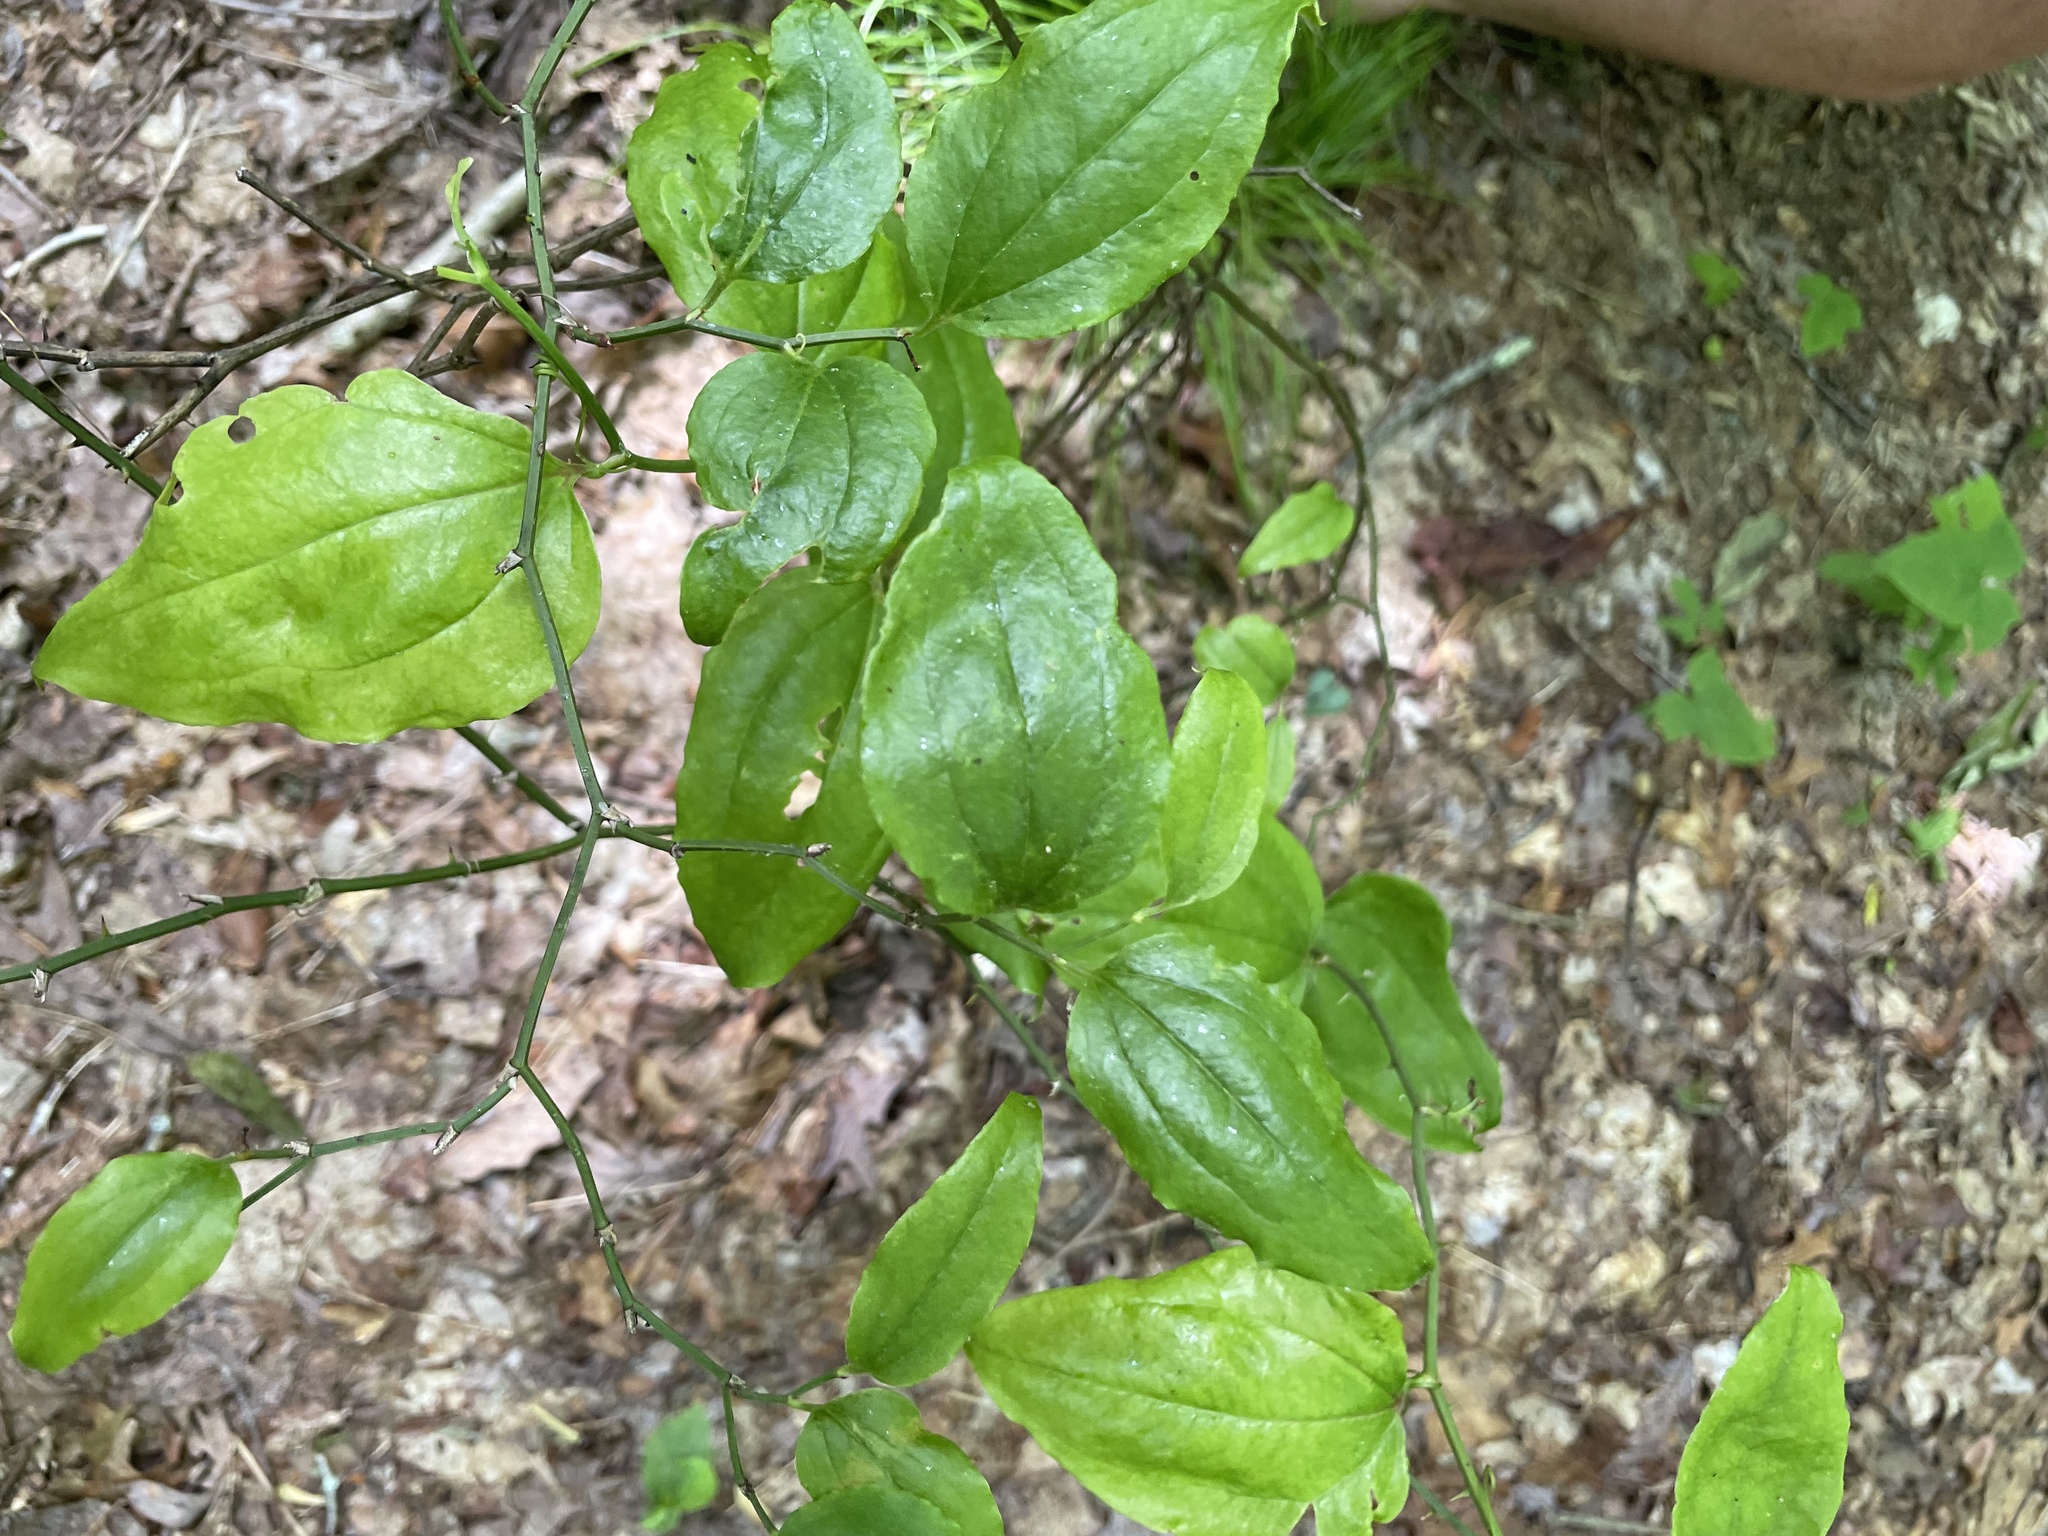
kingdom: Plantae
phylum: Tracheophyta
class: Liliopsida
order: Liliales
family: Smilacaceae
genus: Smilax
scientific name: Smilax rotundifolia
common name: Bullbriar
